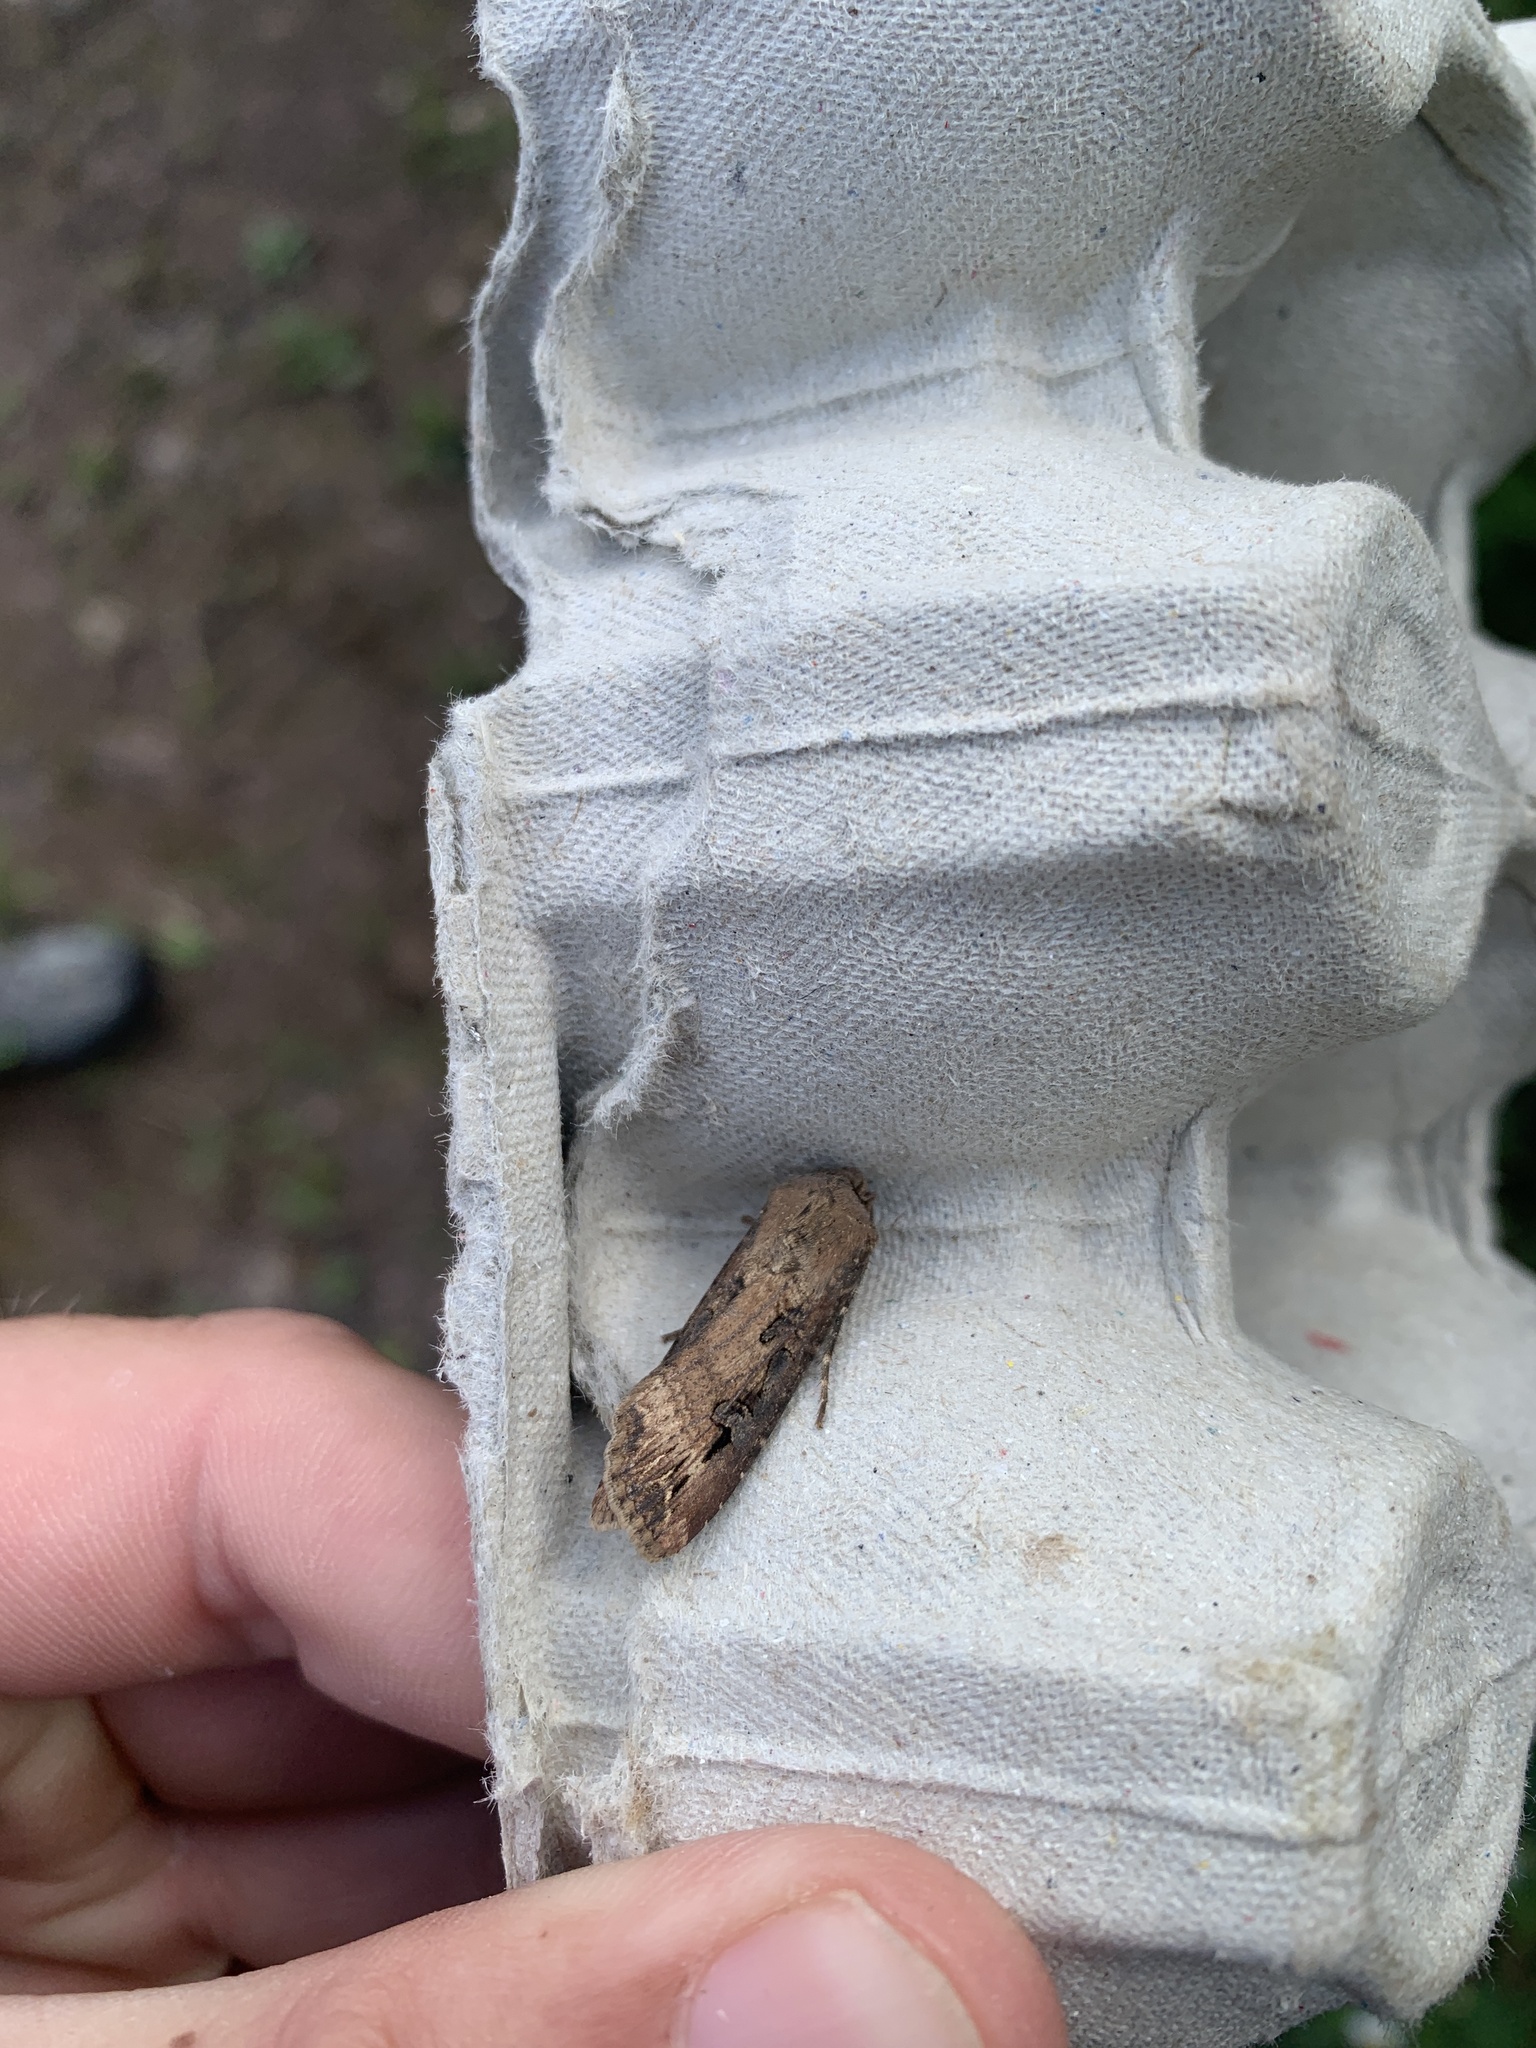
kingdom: Animalia
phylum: Arthropoda
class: Insecta
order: Lepidoptera
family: Noctuidae
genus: Agrotis
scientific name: Agrotis ipsilon
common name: Dark sword-grass
